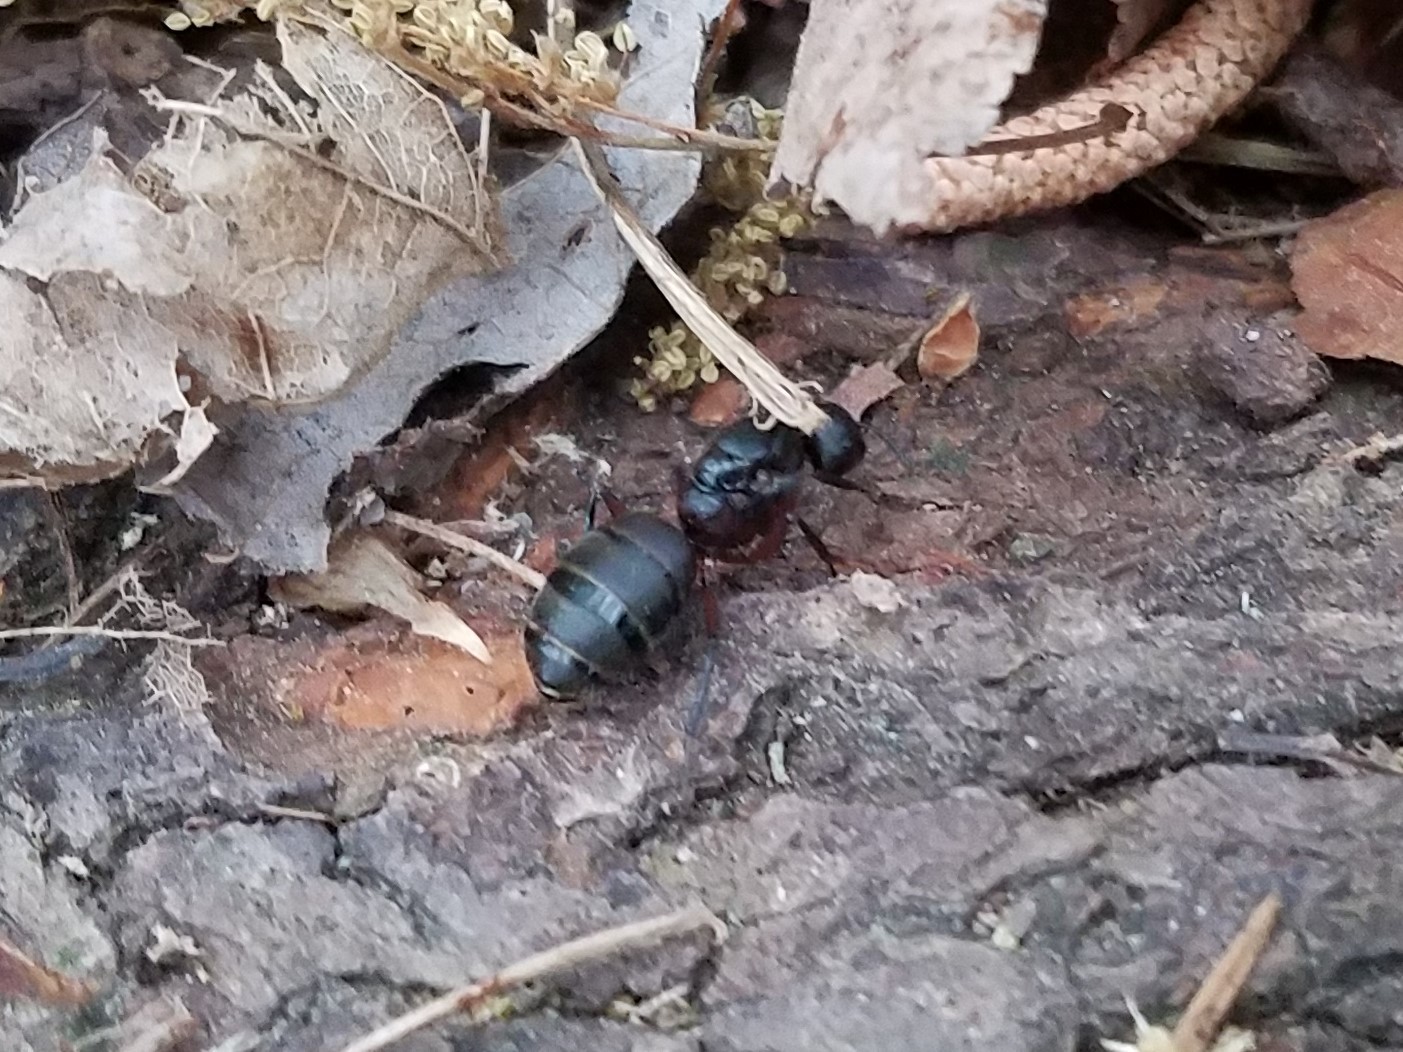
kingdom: Animalia
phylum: Arthropoda
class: Insecta
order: Hymenoptera
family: Formicidae
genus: Camponotus
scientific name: Camponotus chromaiodes
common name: Red carpenter ant
